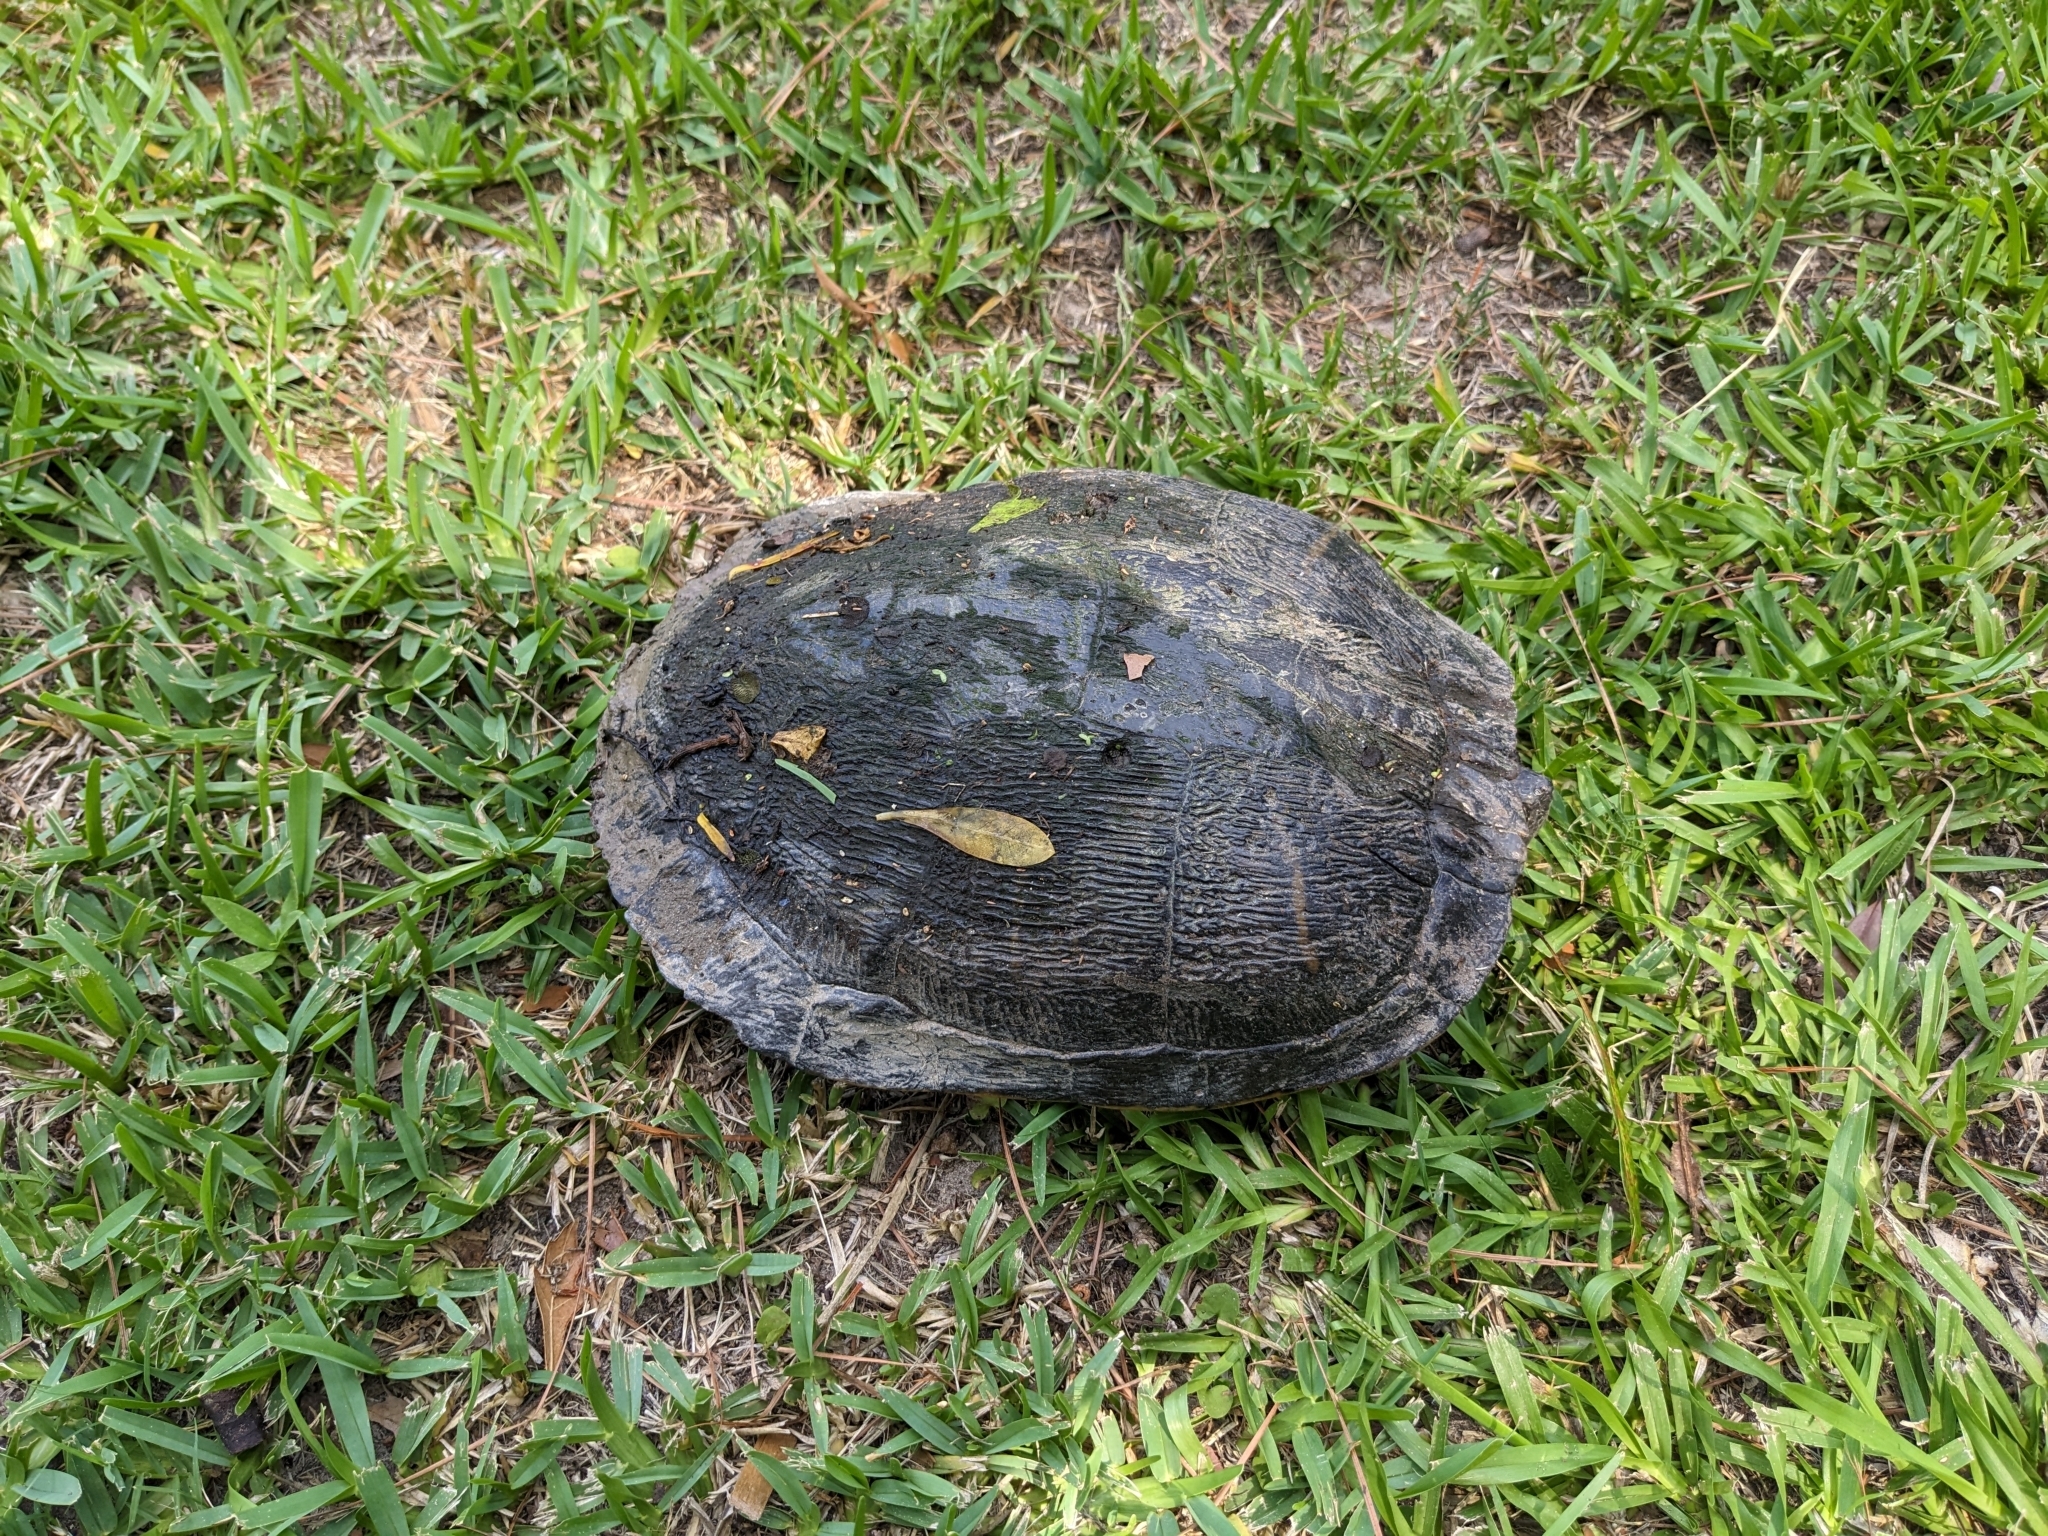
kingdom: Animalia
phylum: Chordata
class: Testudines
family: Emydidae
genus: Trachemys
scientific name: Trachemys scripta
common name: Slider
